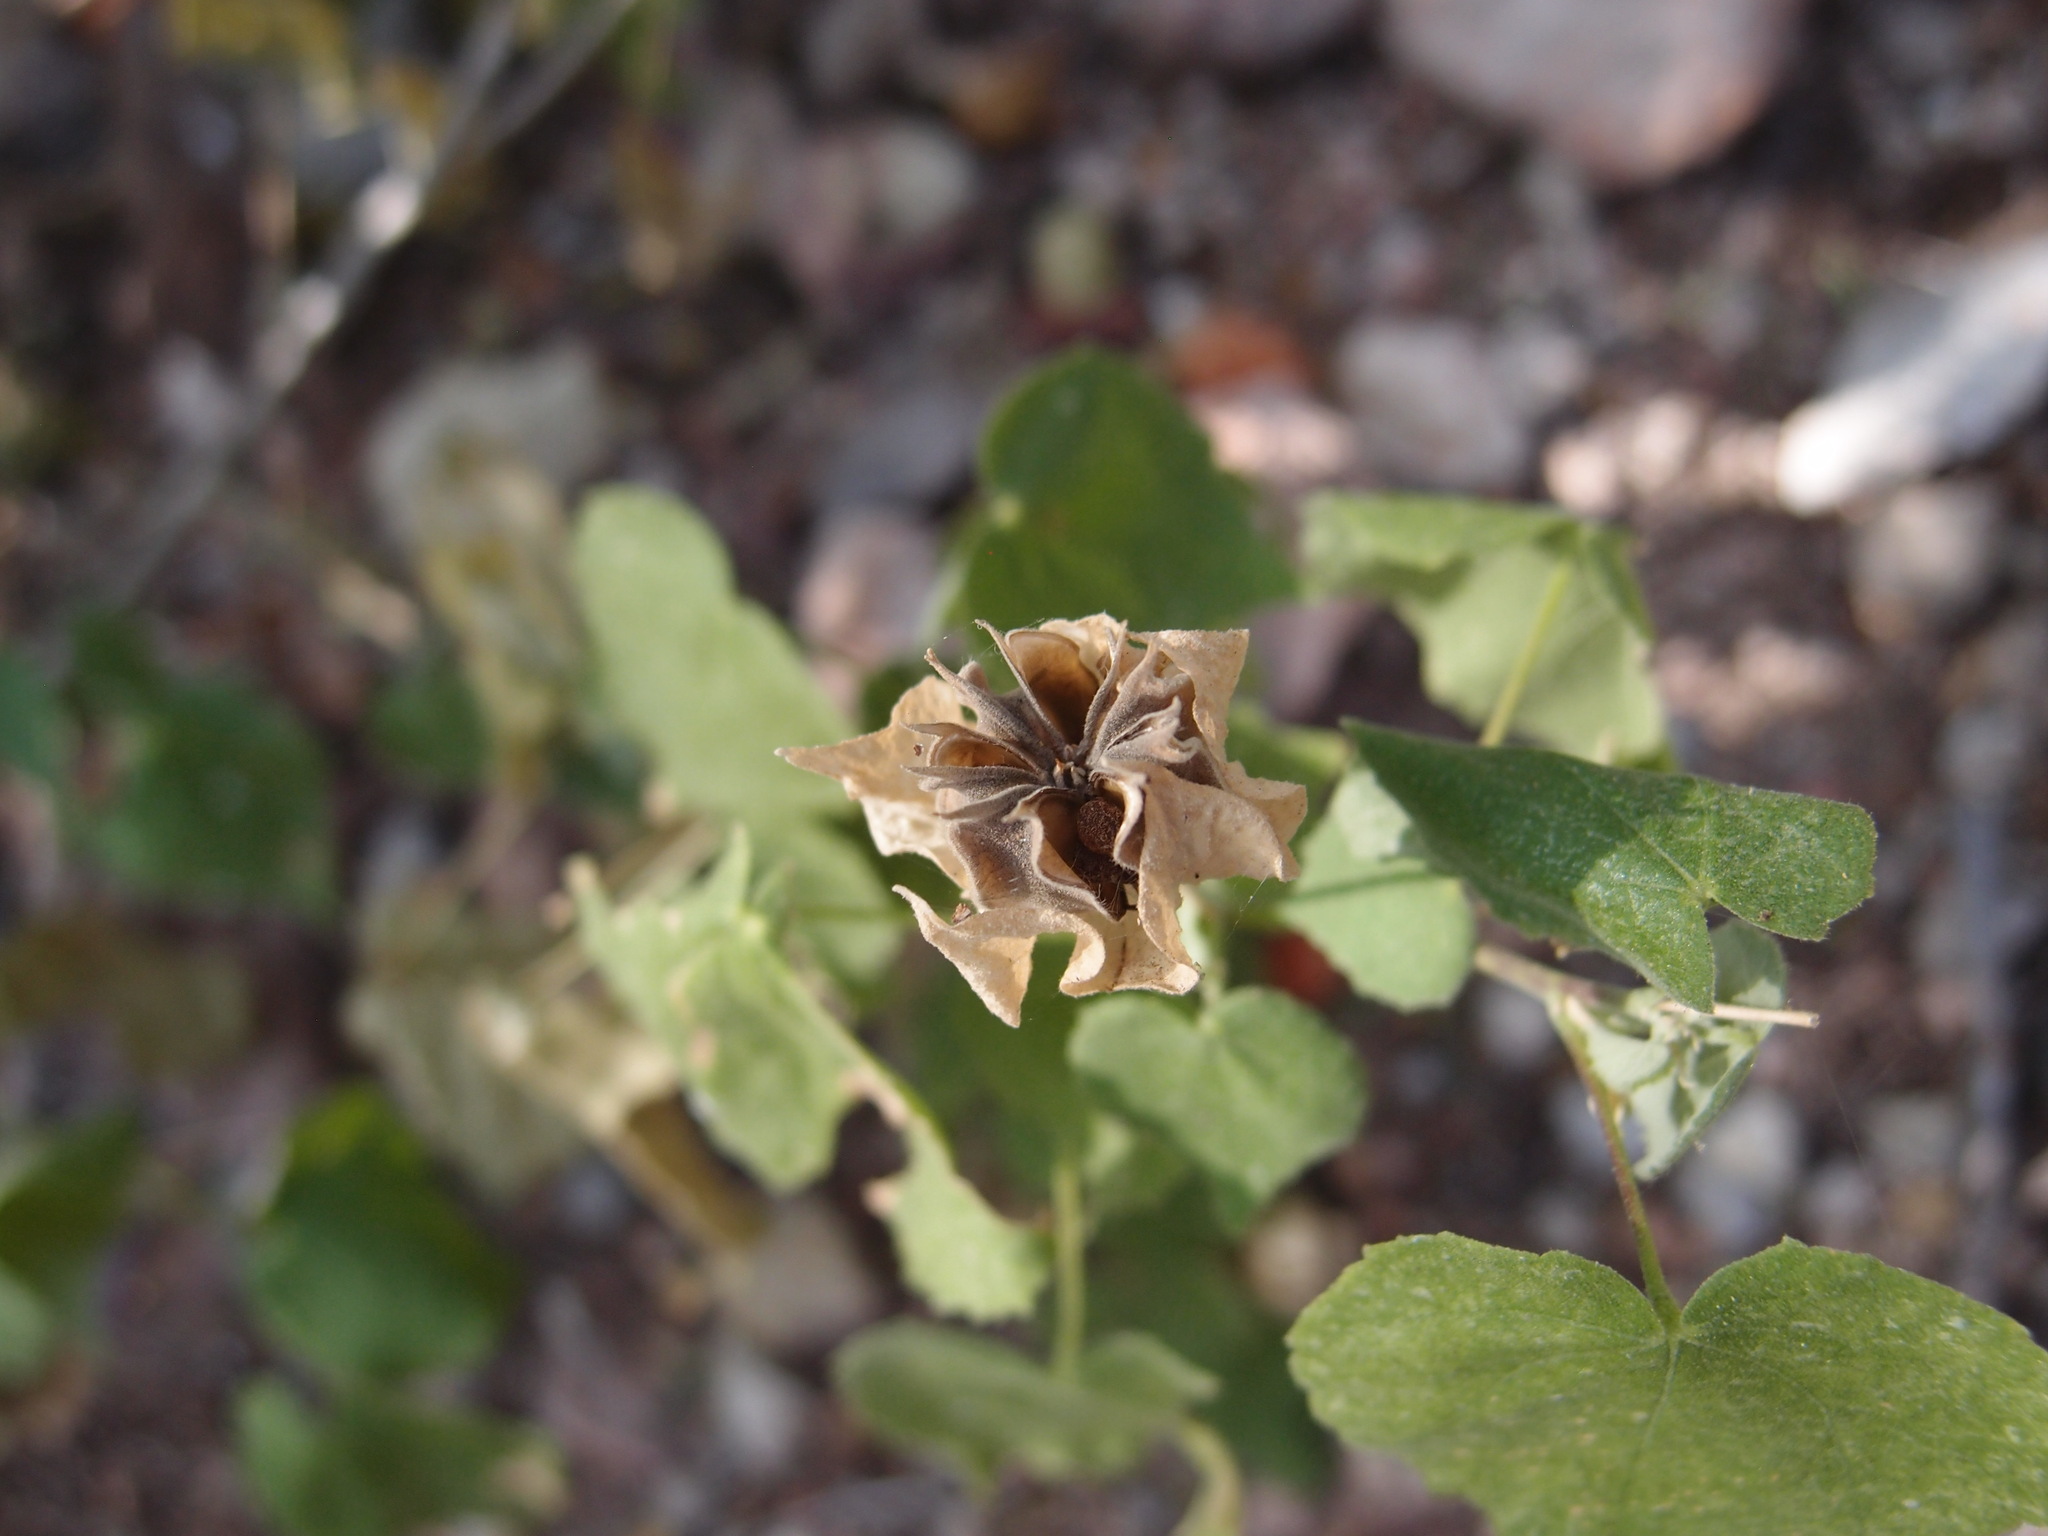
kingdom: Plantae
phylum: Tracheophyta
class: Magnoliopsida
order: Malvales
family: Malvaceae
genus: Abutilon
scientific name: Abutilon abutiloides
